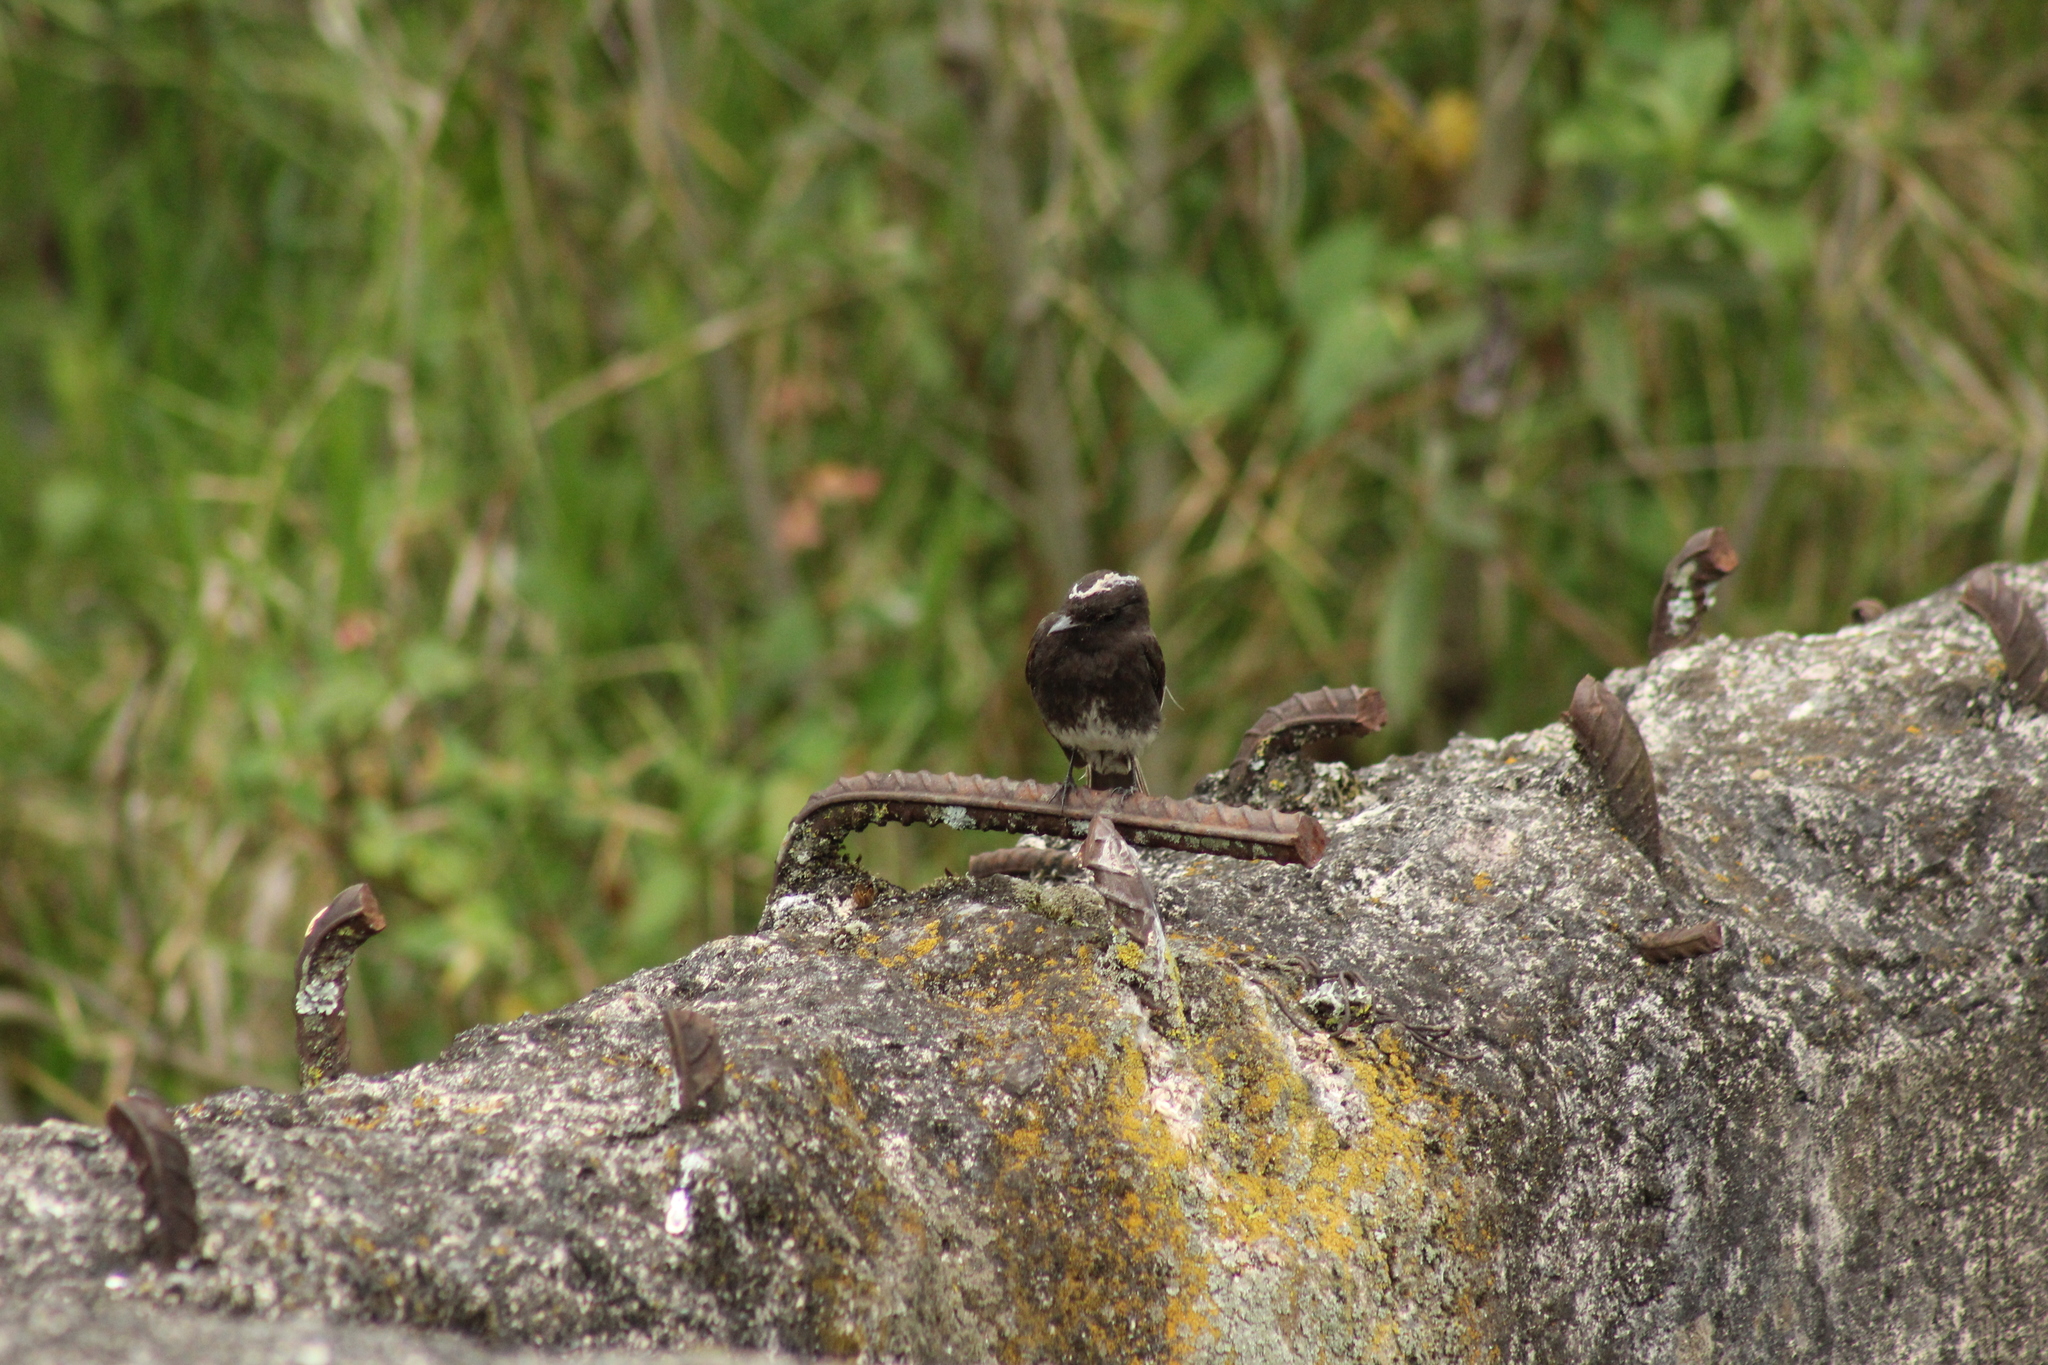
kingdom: Animalia
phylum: Chordata
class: Aves
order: Passeriformes
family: Tyrannidae
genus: Sayornis
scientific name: Sayornis nigricans
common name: Black phoebe
